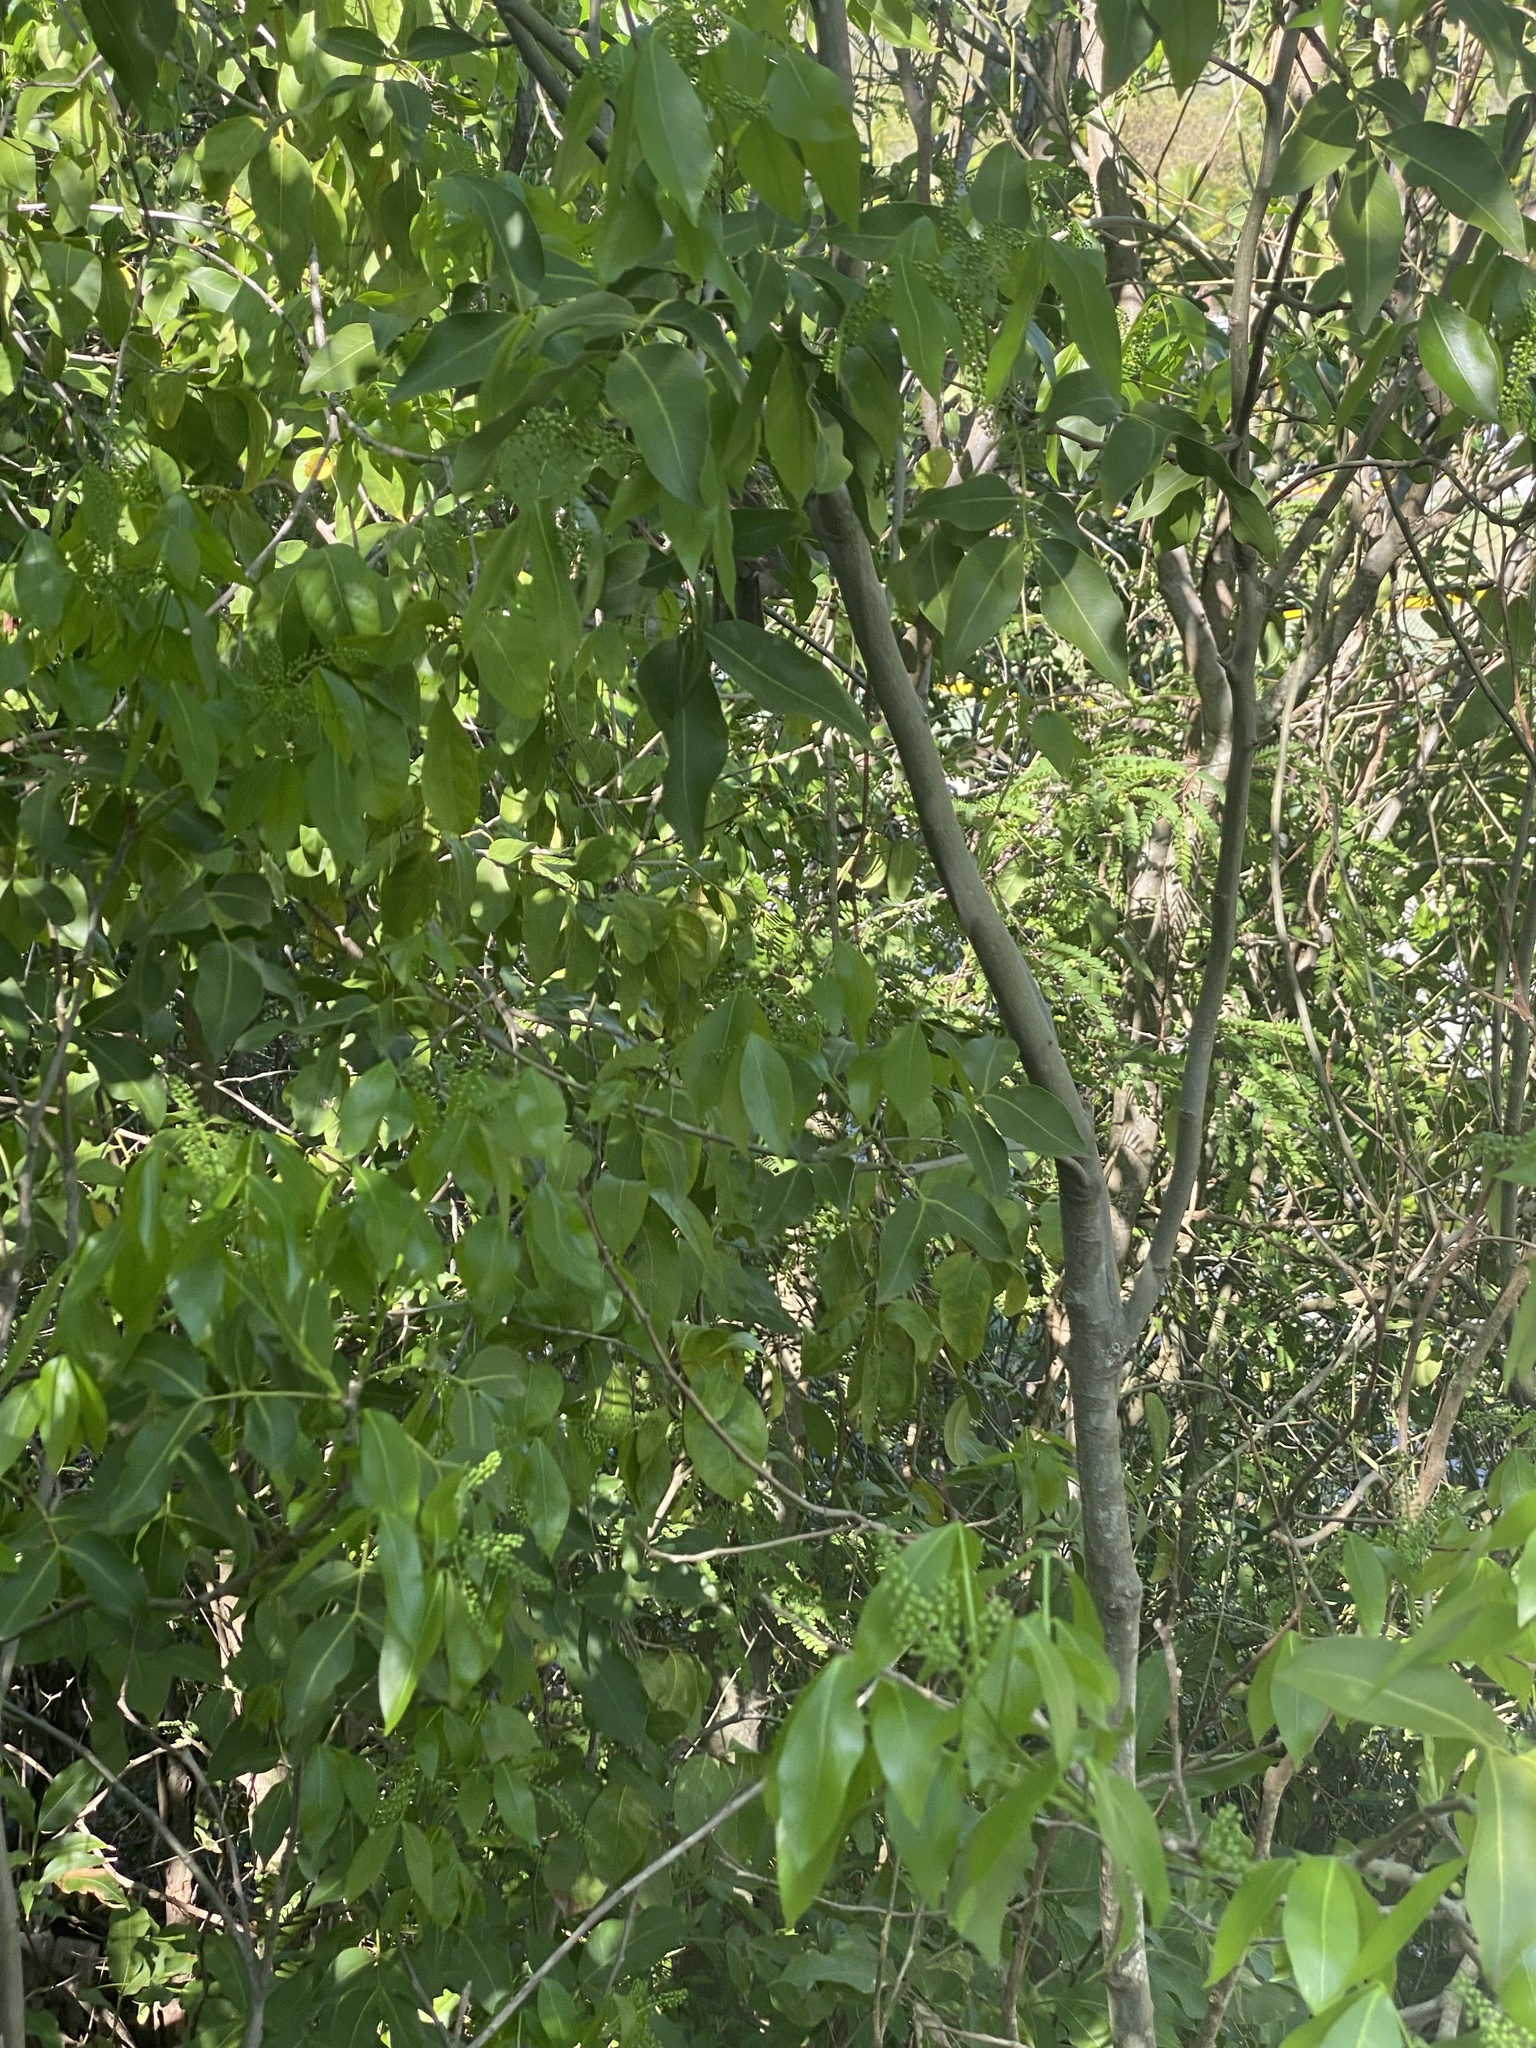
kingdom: Animalia
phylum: Chordata
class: Aves
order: Passeriformes
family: Mimidae
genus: Margarops
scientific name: Margarops fuscatus
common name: Pearly-eyed thrasher
